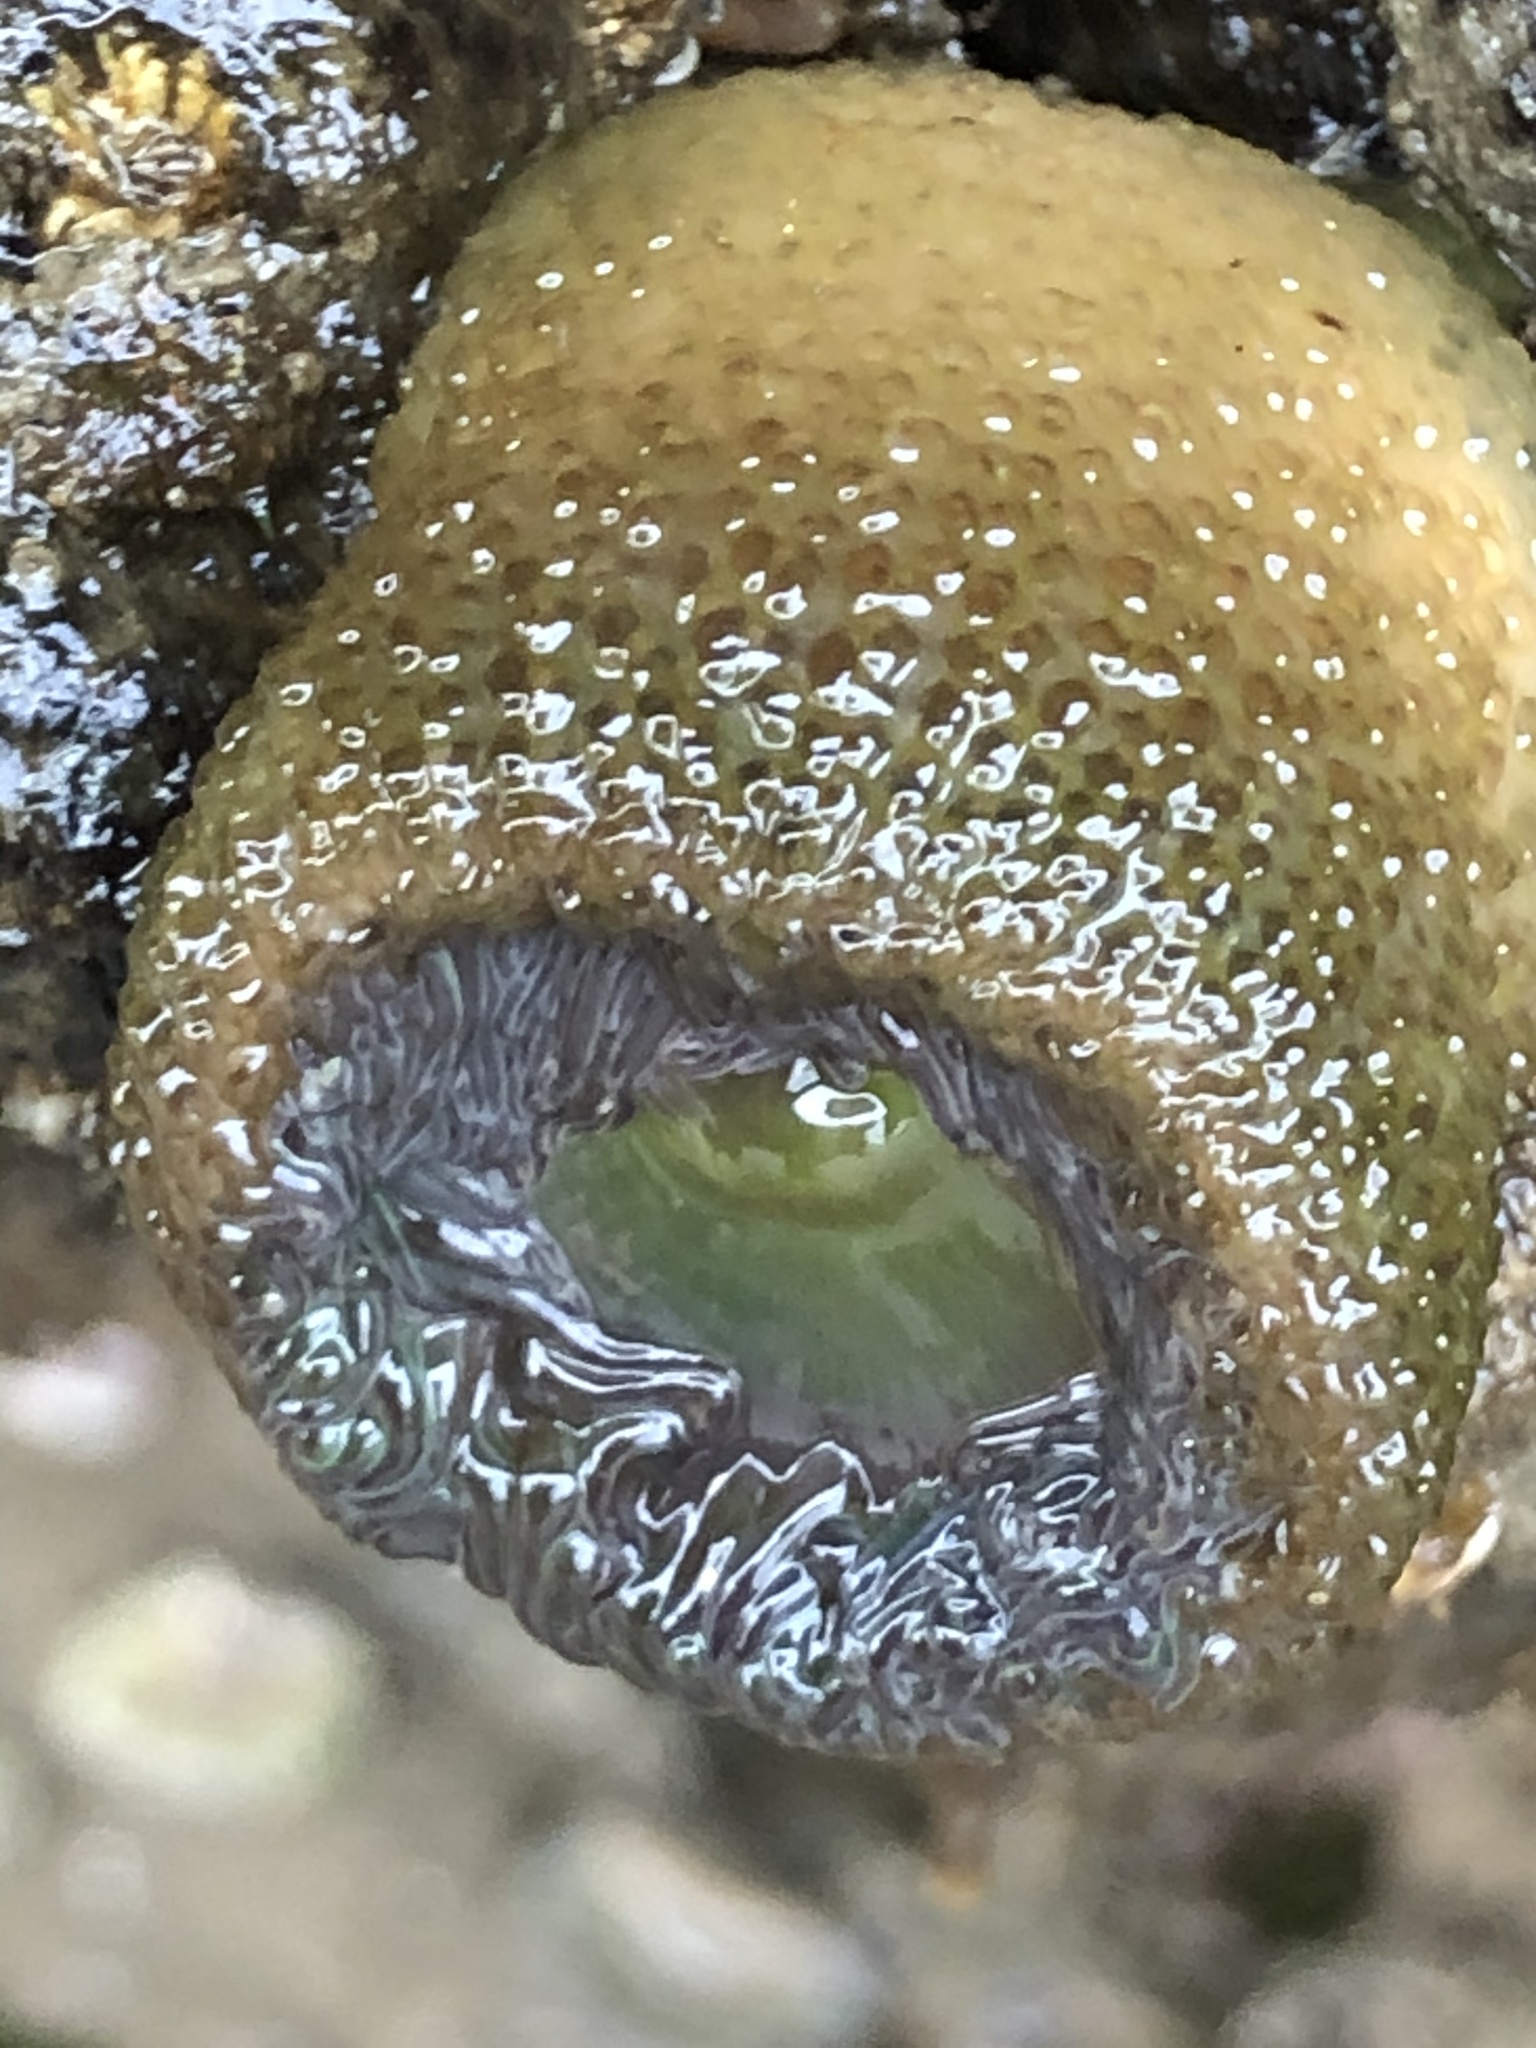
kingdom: Animalia
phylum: Cnidaria
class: Anthozoa
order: Actiniaria
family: Actiniidae
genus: Anthopleura
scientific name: Anthopleura xanthogrammica
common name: Giant green anemone
